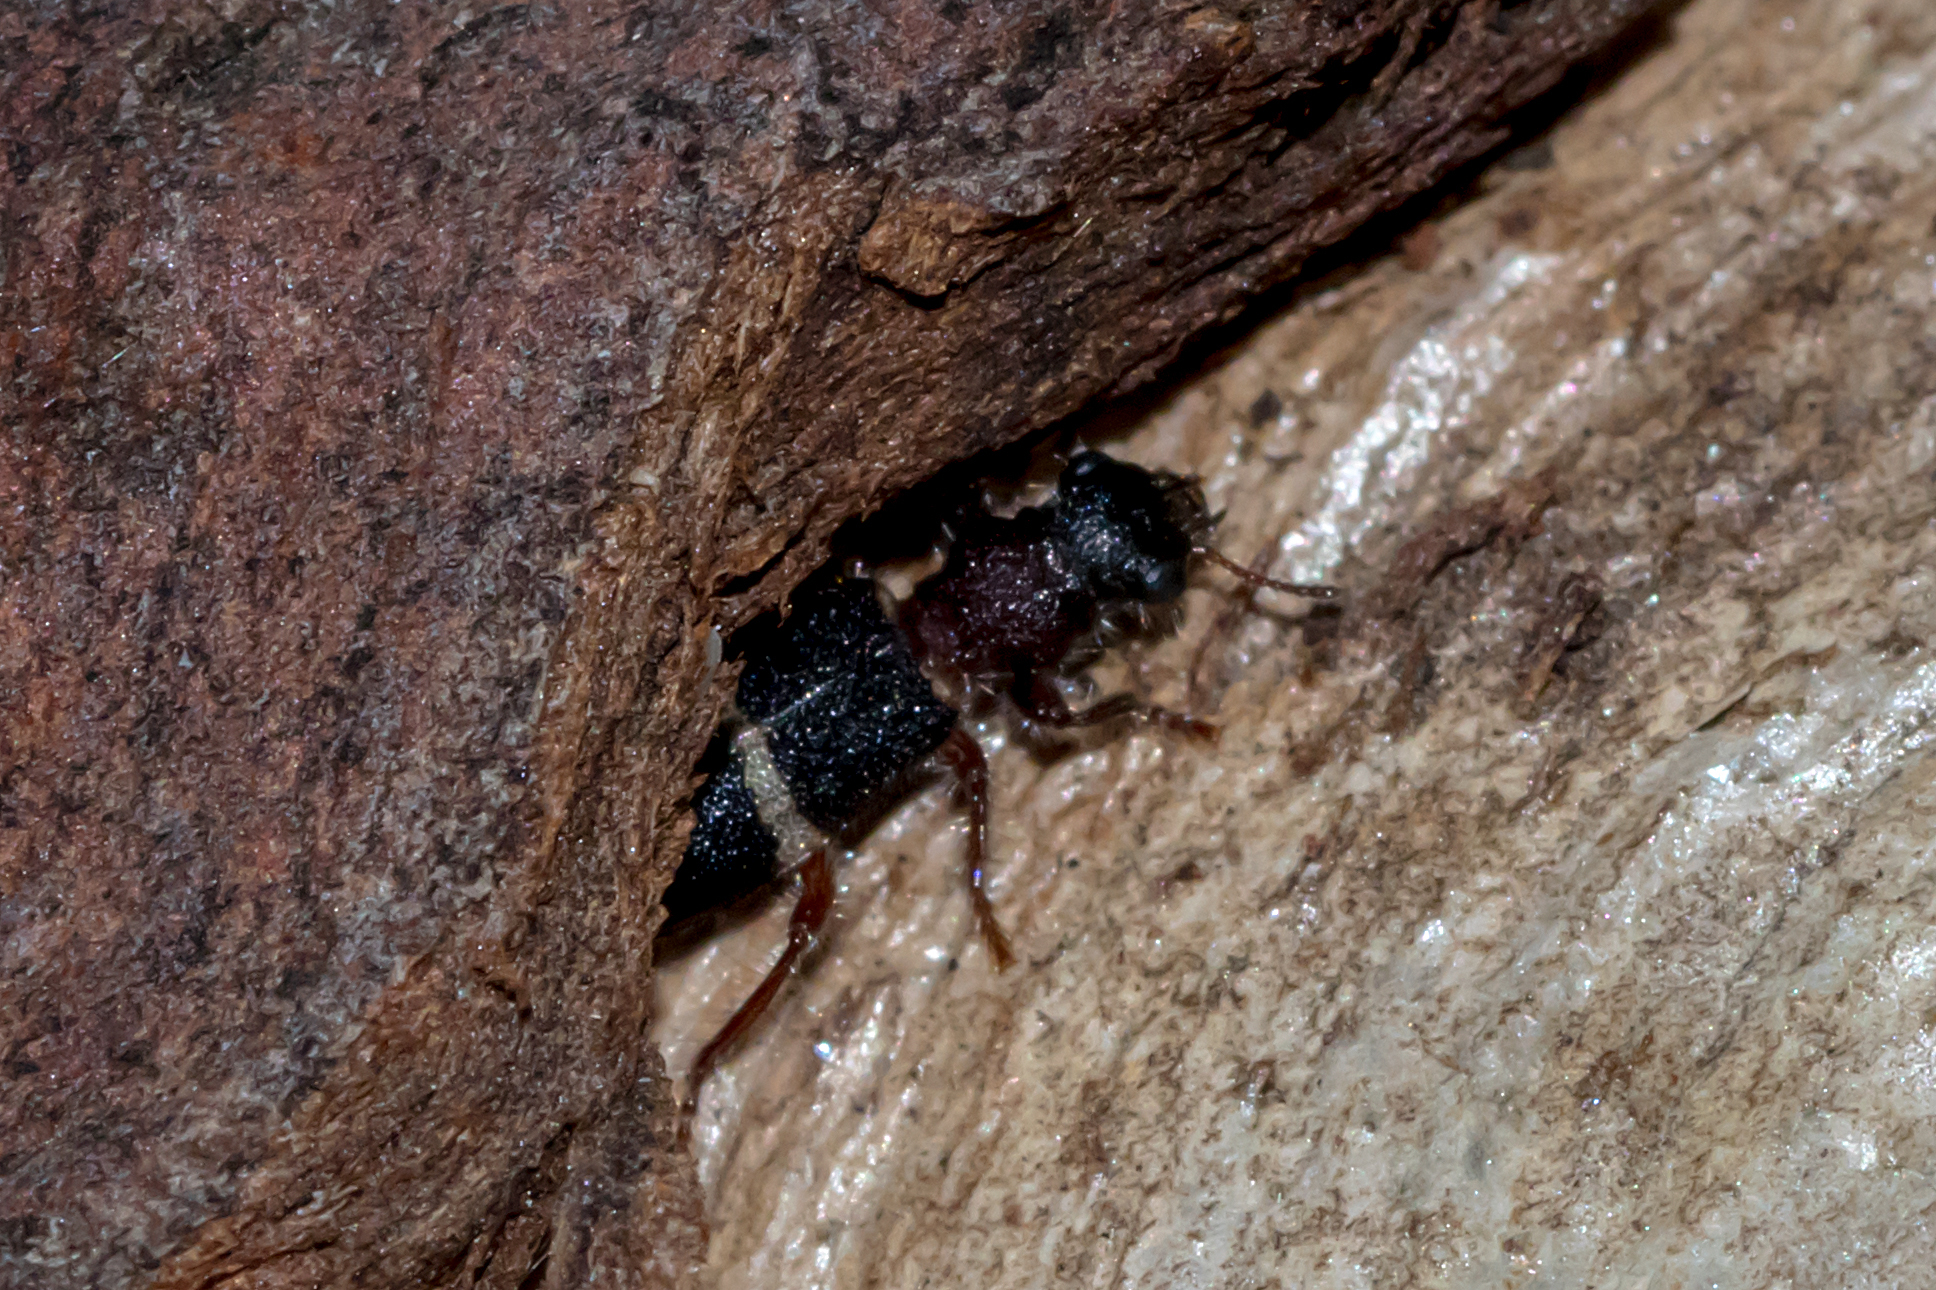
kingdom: Animalia
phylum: Arthropoda
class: Insecta
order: Coleoptera
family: Cleridae
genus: Lemidia
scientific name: Lemidia
